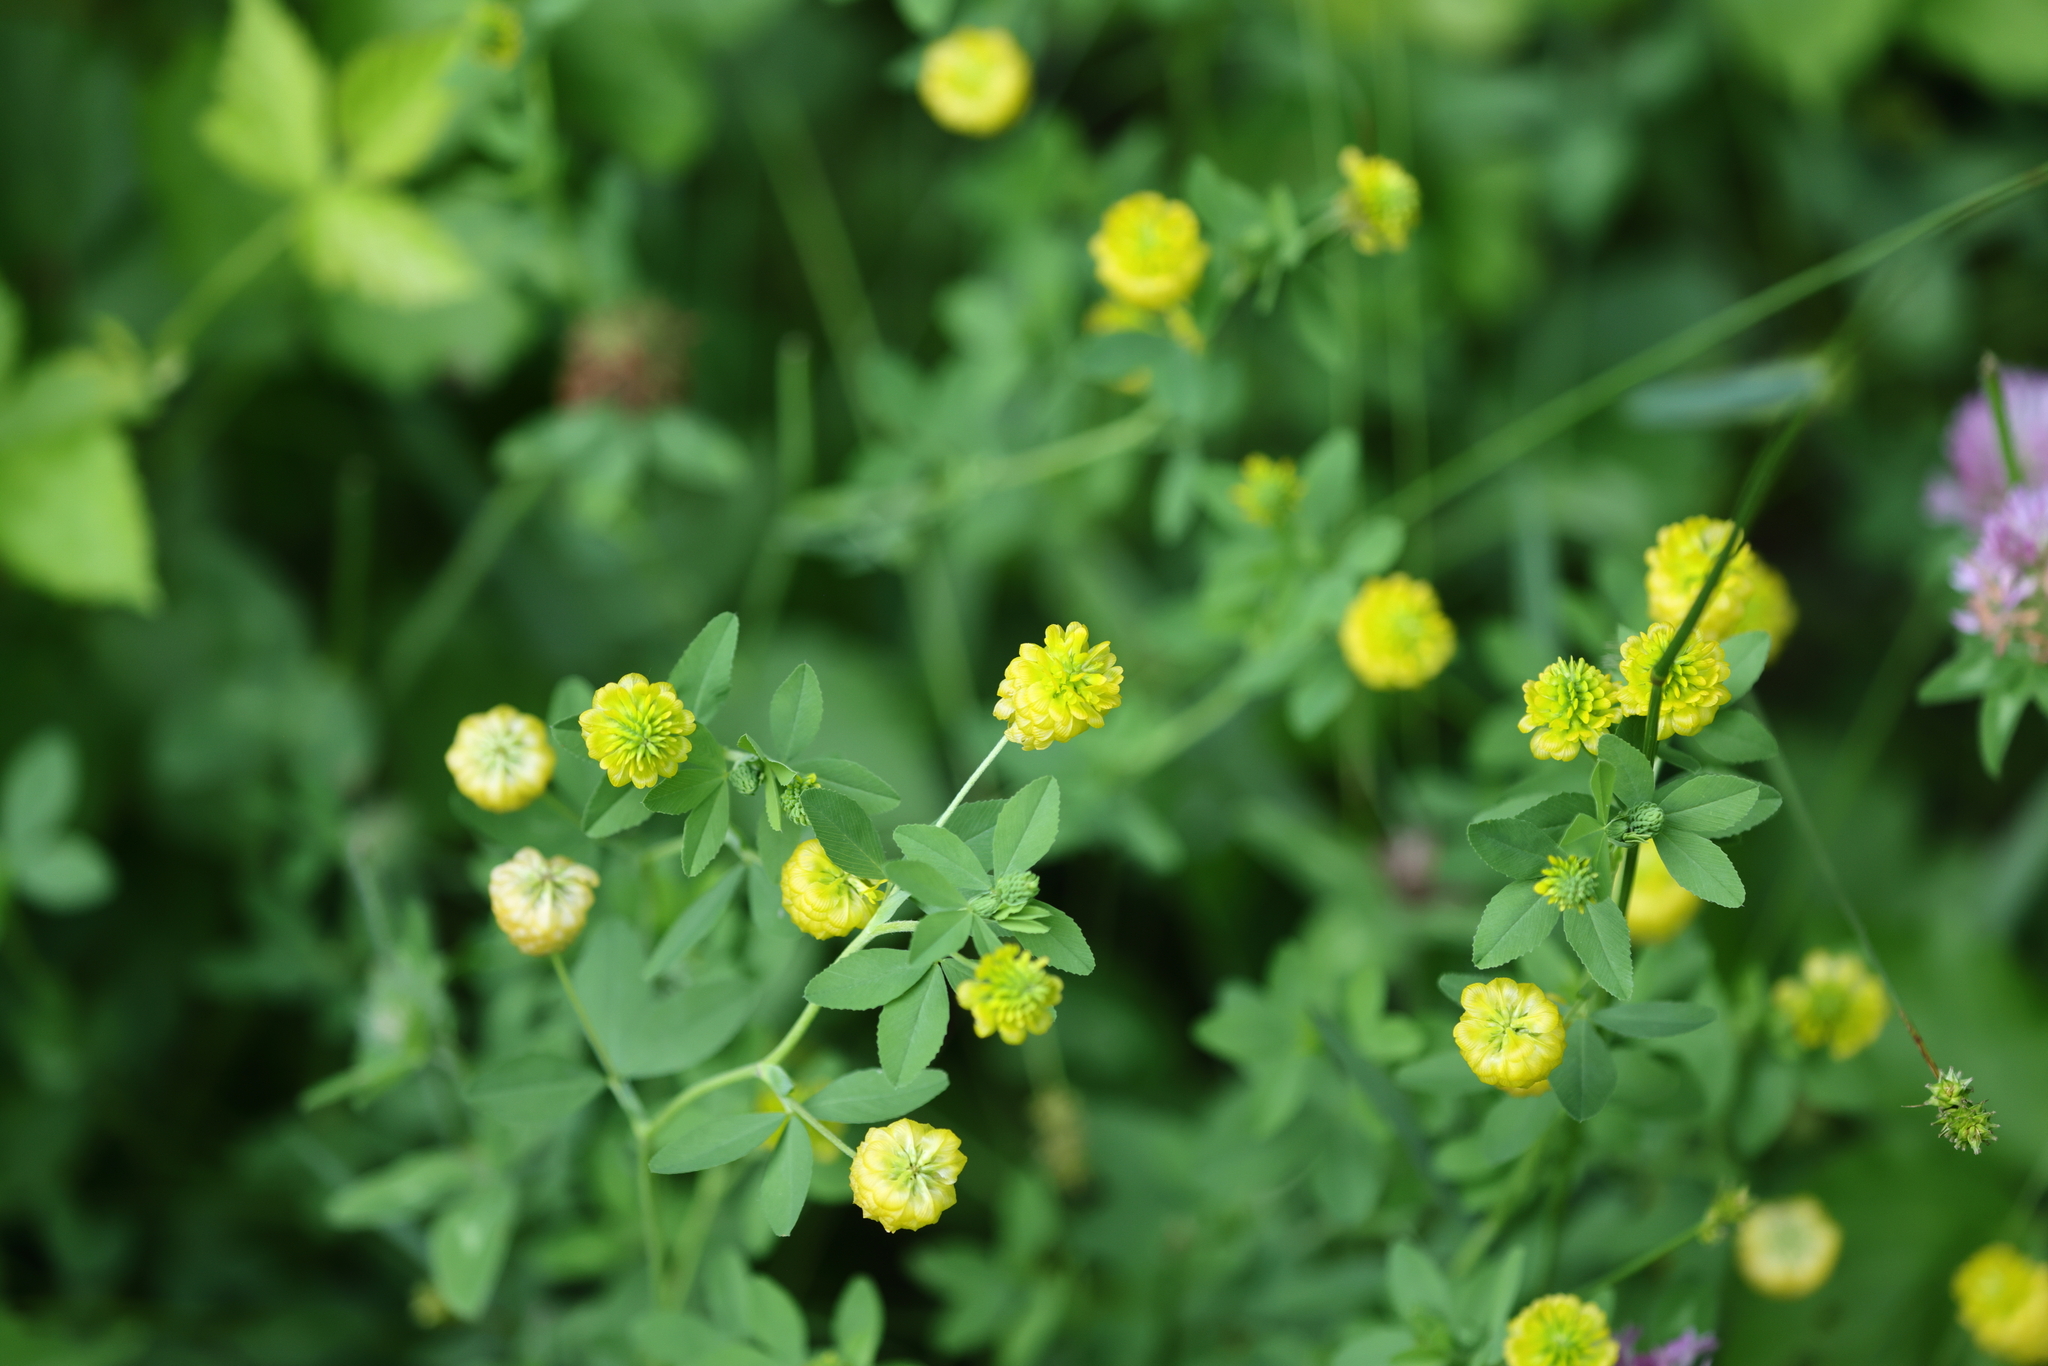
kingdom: Plantae
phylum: Tracheophyta
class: Magnoliopsida
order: Fabales
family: Fabaceae
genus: Trifolium
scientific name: Trifolium aureum
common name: Golden clover
